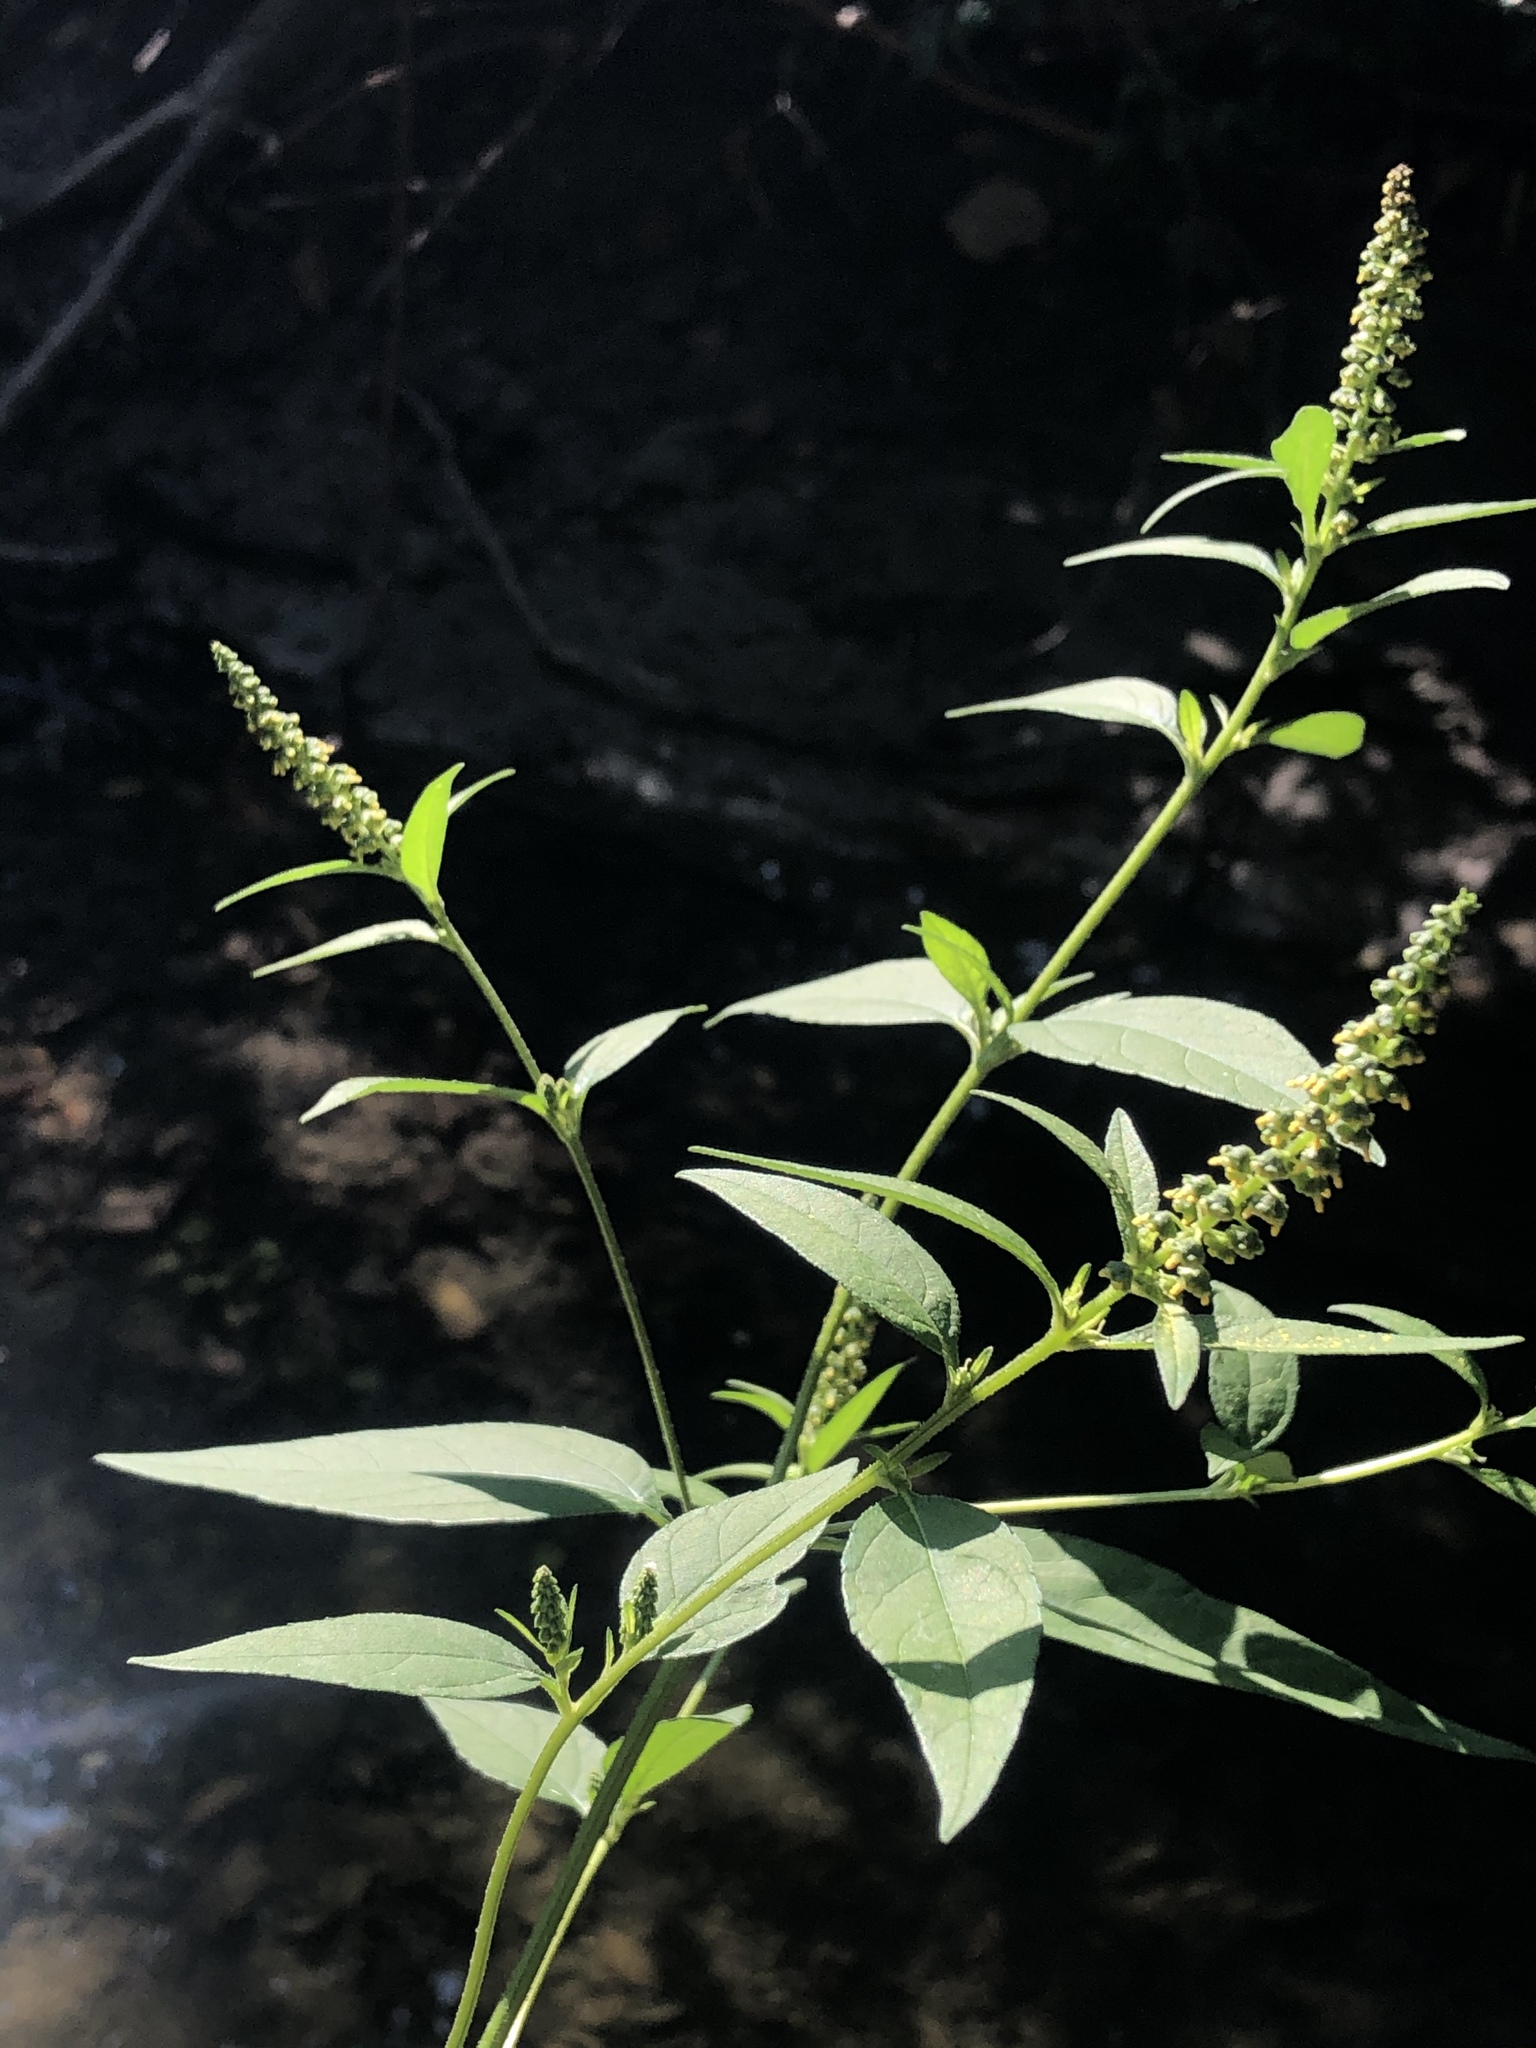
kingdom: Plantae
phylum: Tracheophyta
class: Magnoliopsida
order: Asterales
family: Asteraceae
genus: Ambrosia
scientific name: Ambrosia trifida
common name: Giant ragweed
